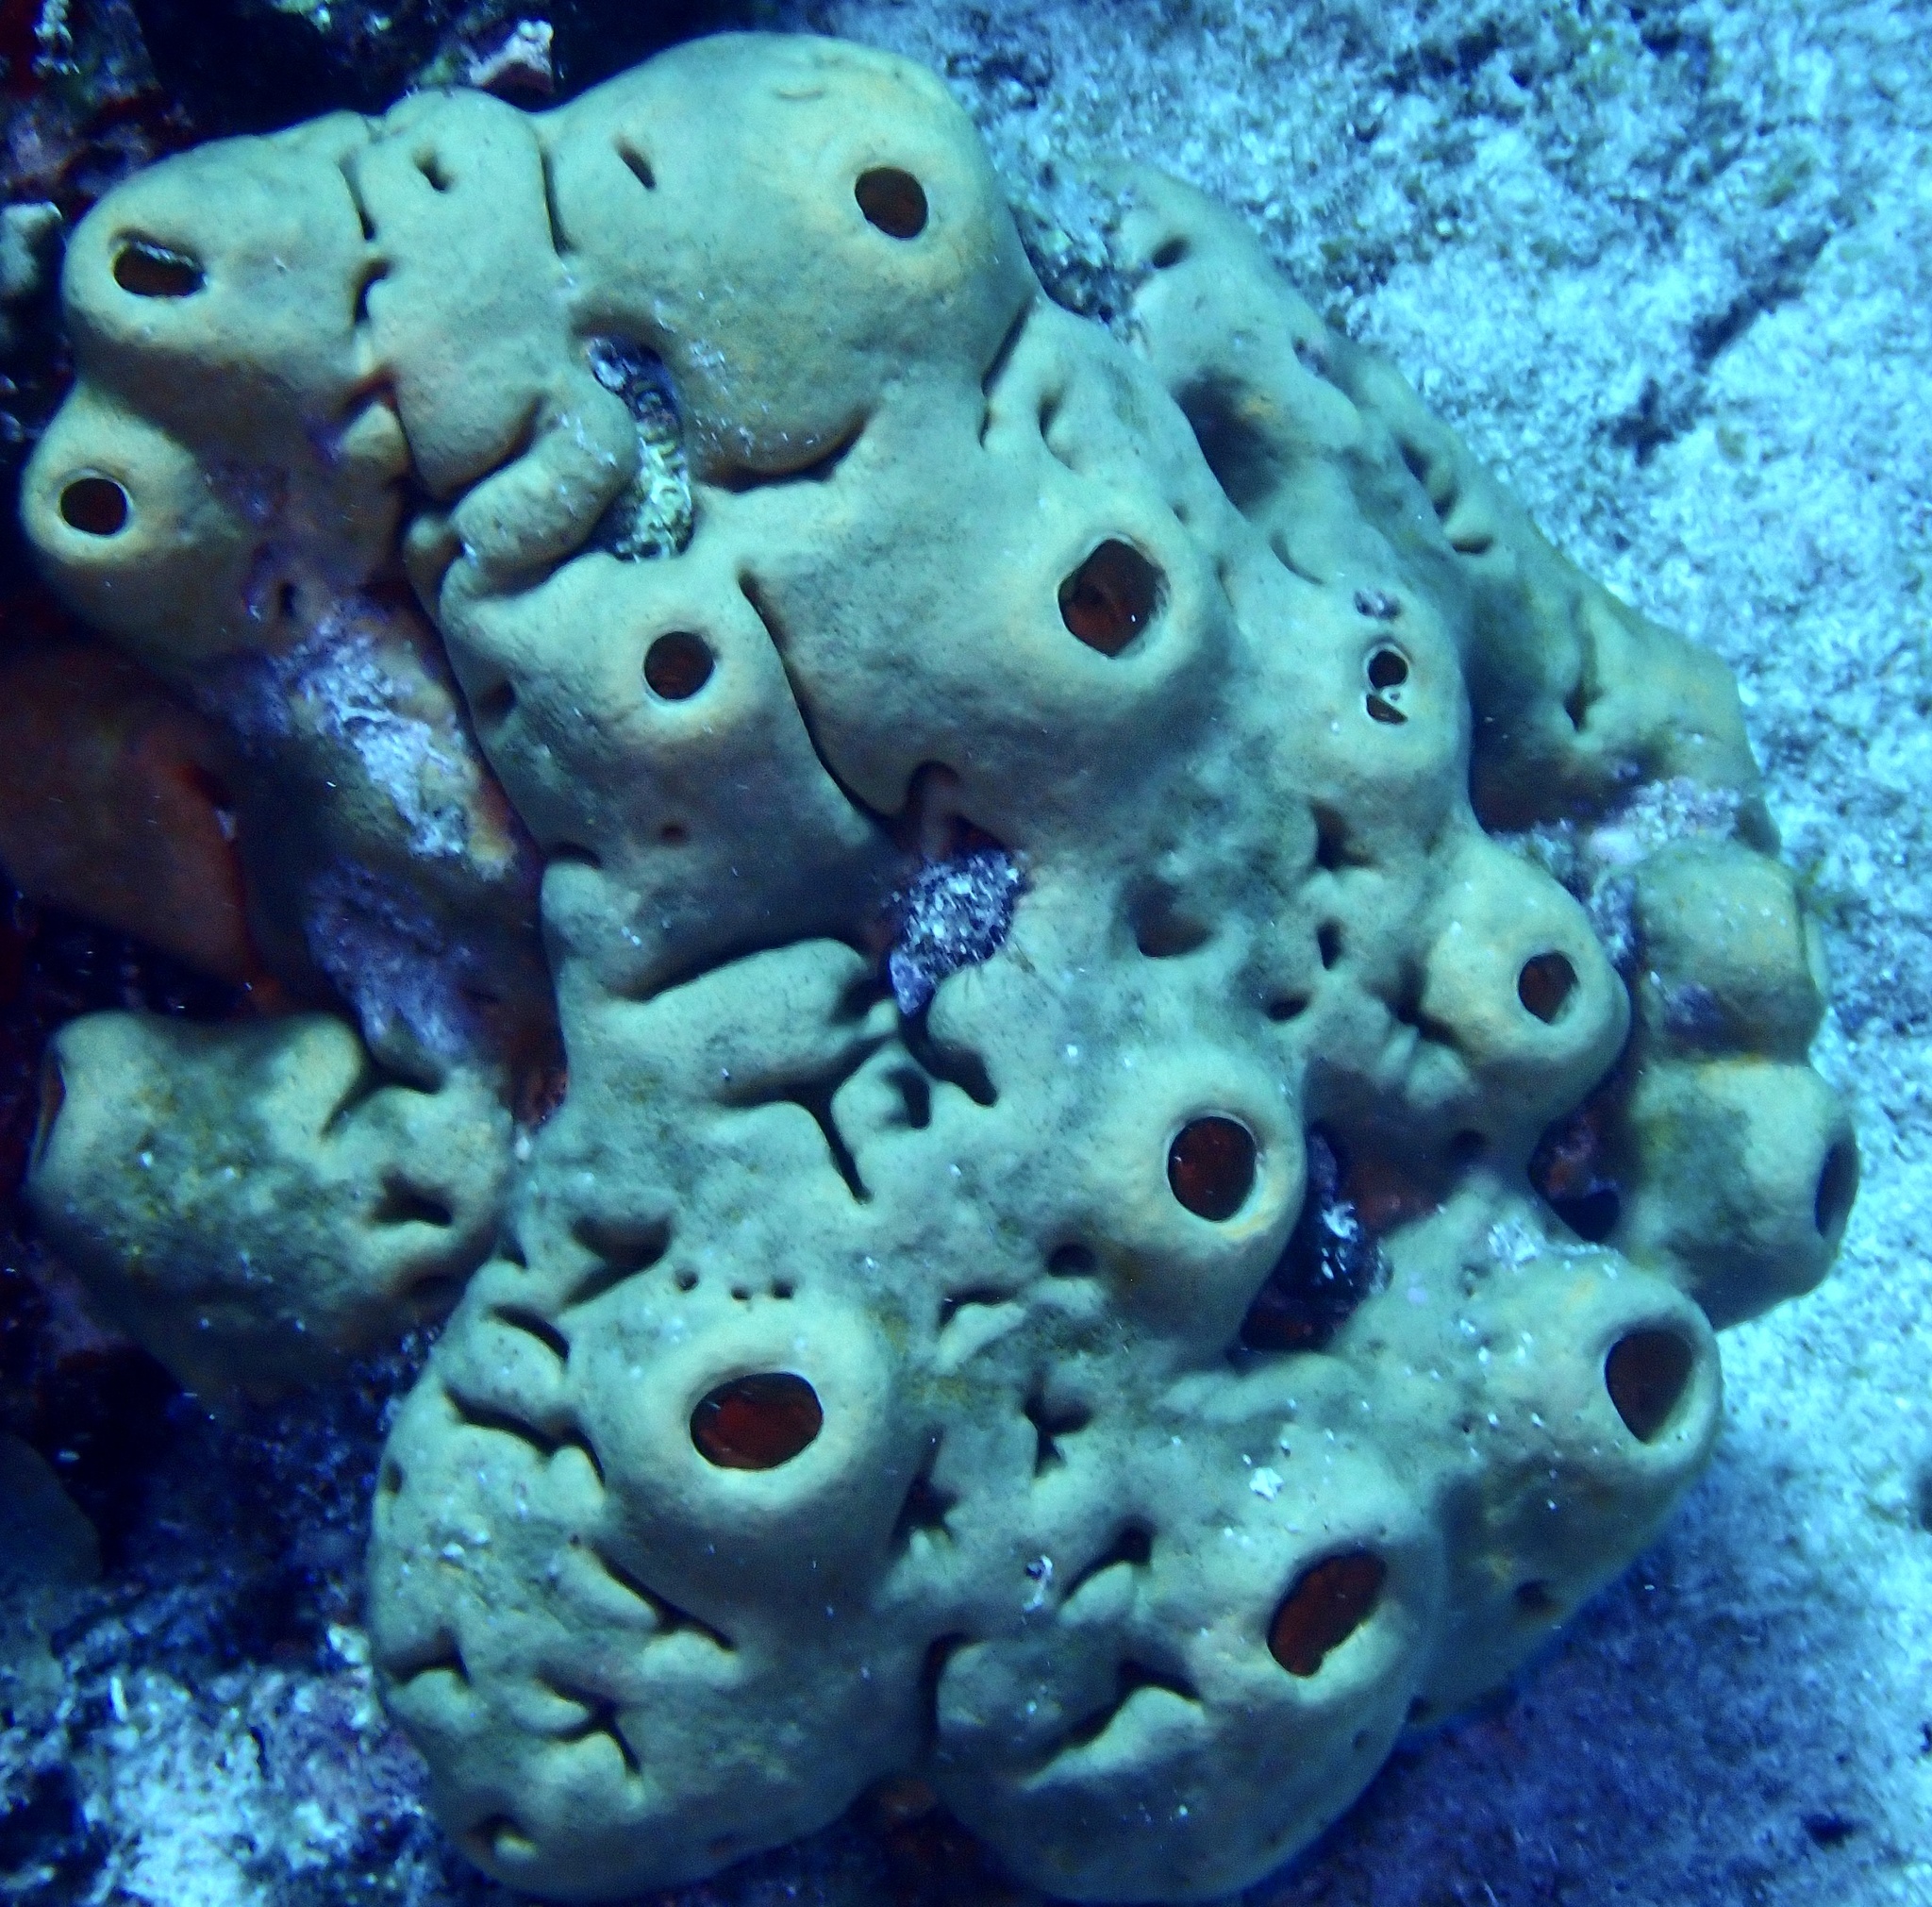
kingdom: Animalia
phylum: Porifera
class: Demospongiae
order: Agelasida
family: Agelasidae
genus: Agelas
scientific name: Agelas cerebrum
